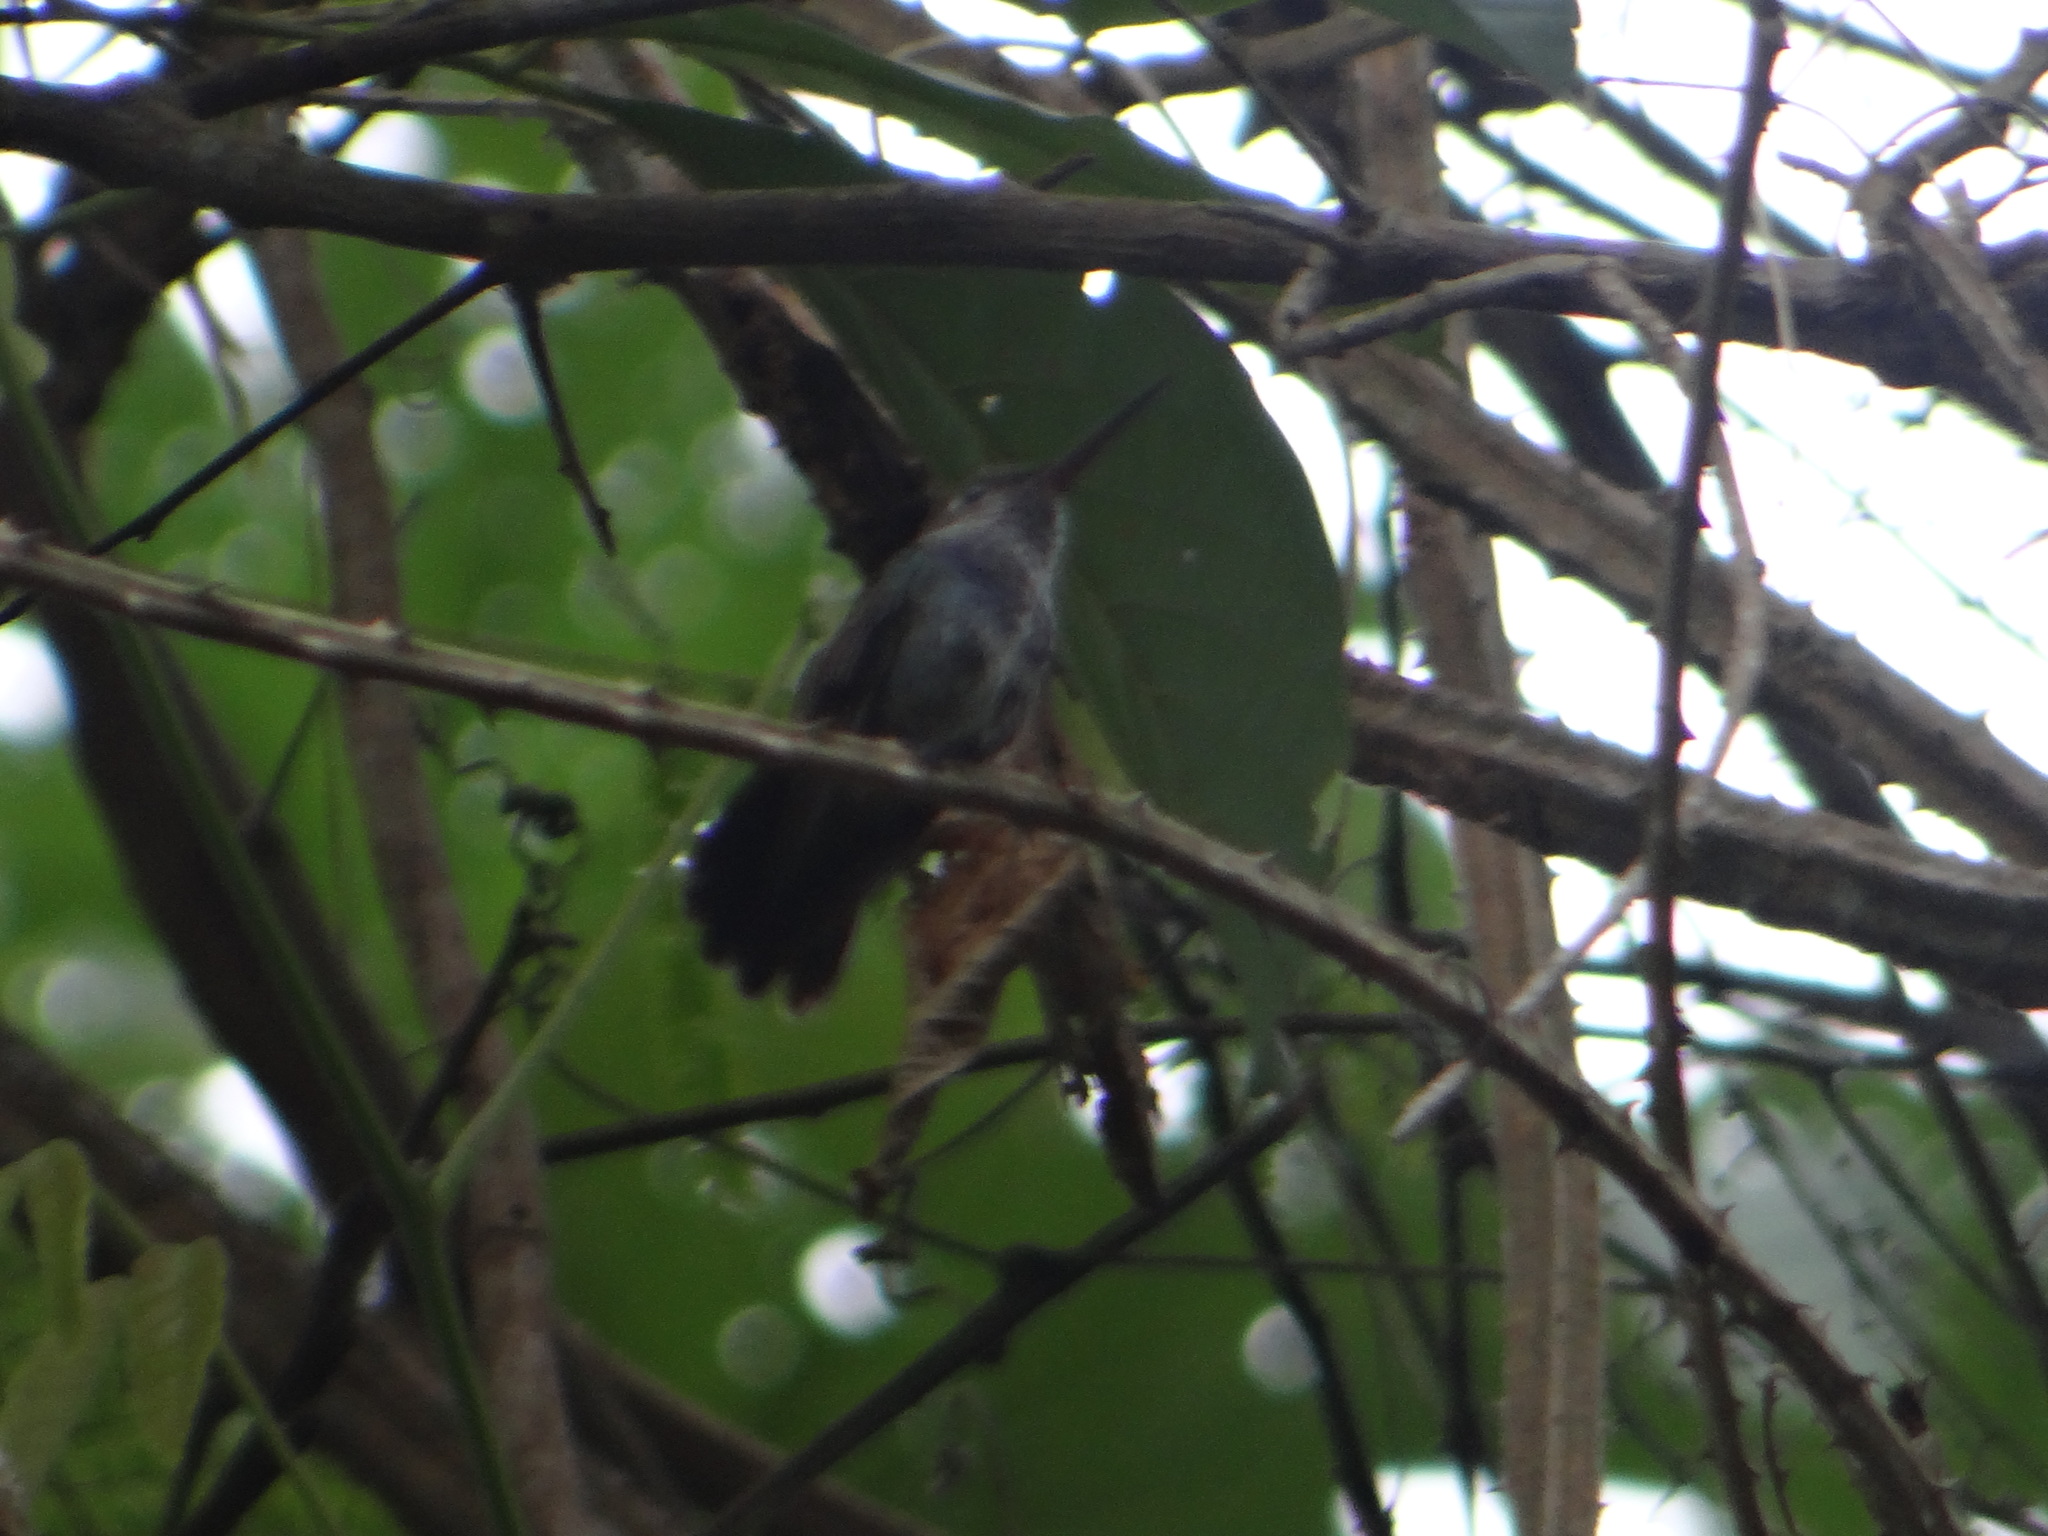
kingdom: Animalia
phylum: Chordata
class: Aves
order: Apodiformes
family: Trochilidae
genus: Chionomesa
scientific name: Chionomesa lactea
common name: Sapphire-spangled emerald
